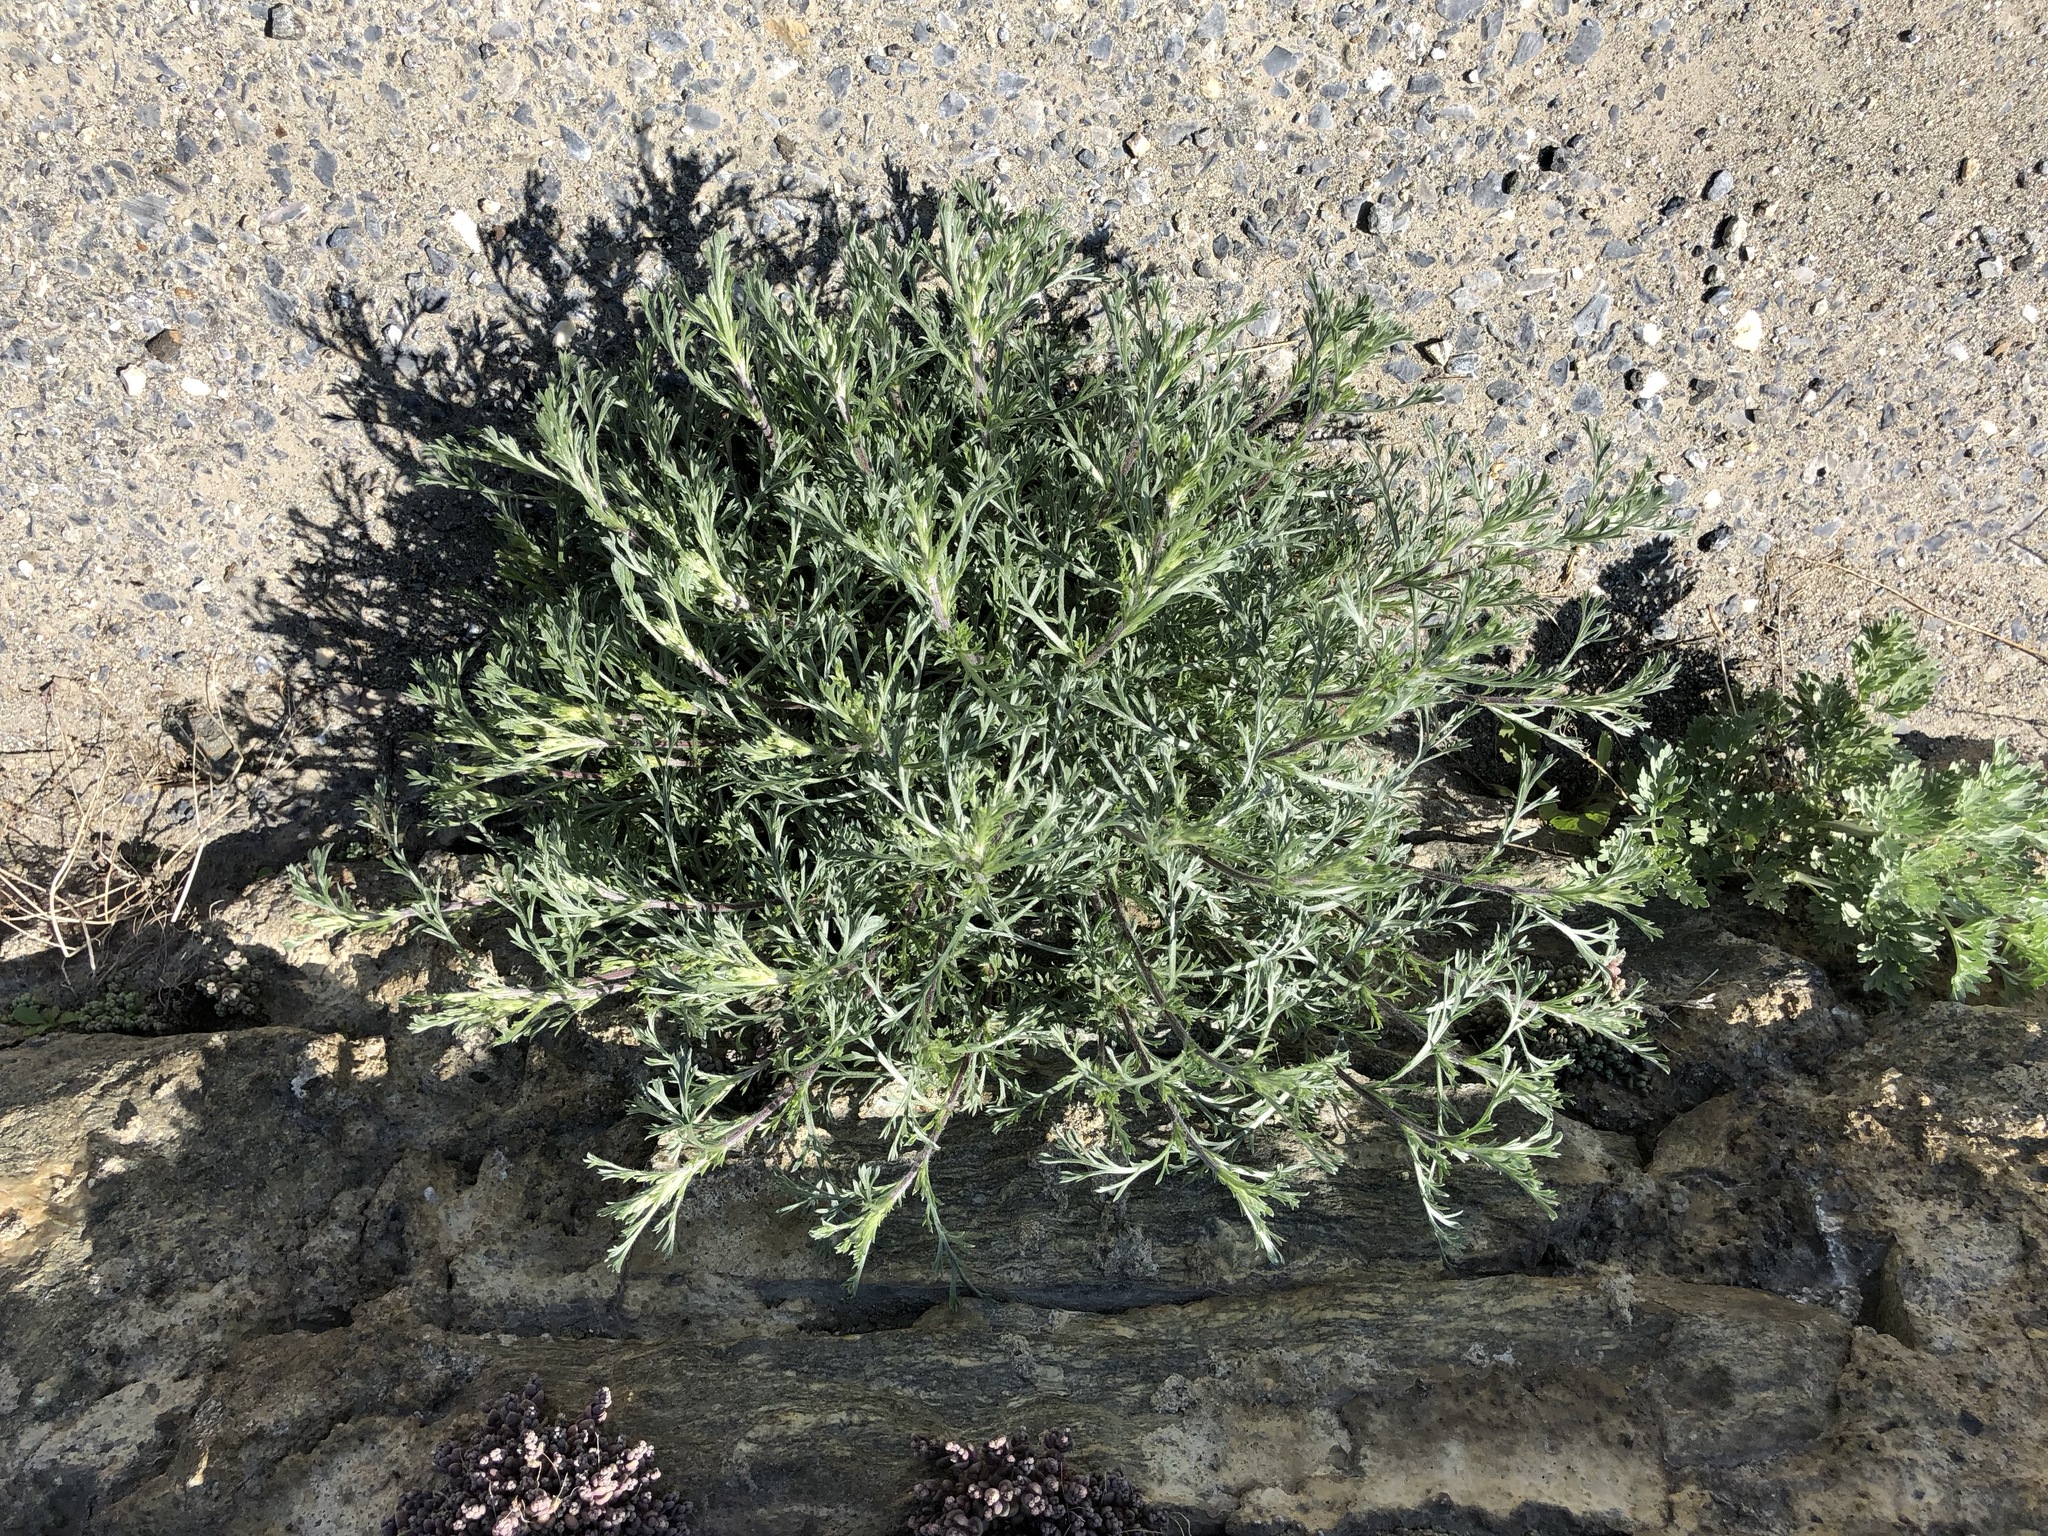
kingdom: Plantae
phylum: Tracheophyta
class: Magnoliopsida
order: Asterales
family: Asteraceae
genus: Artemisia
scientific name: Artemisia campestris
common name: Field wormwood
